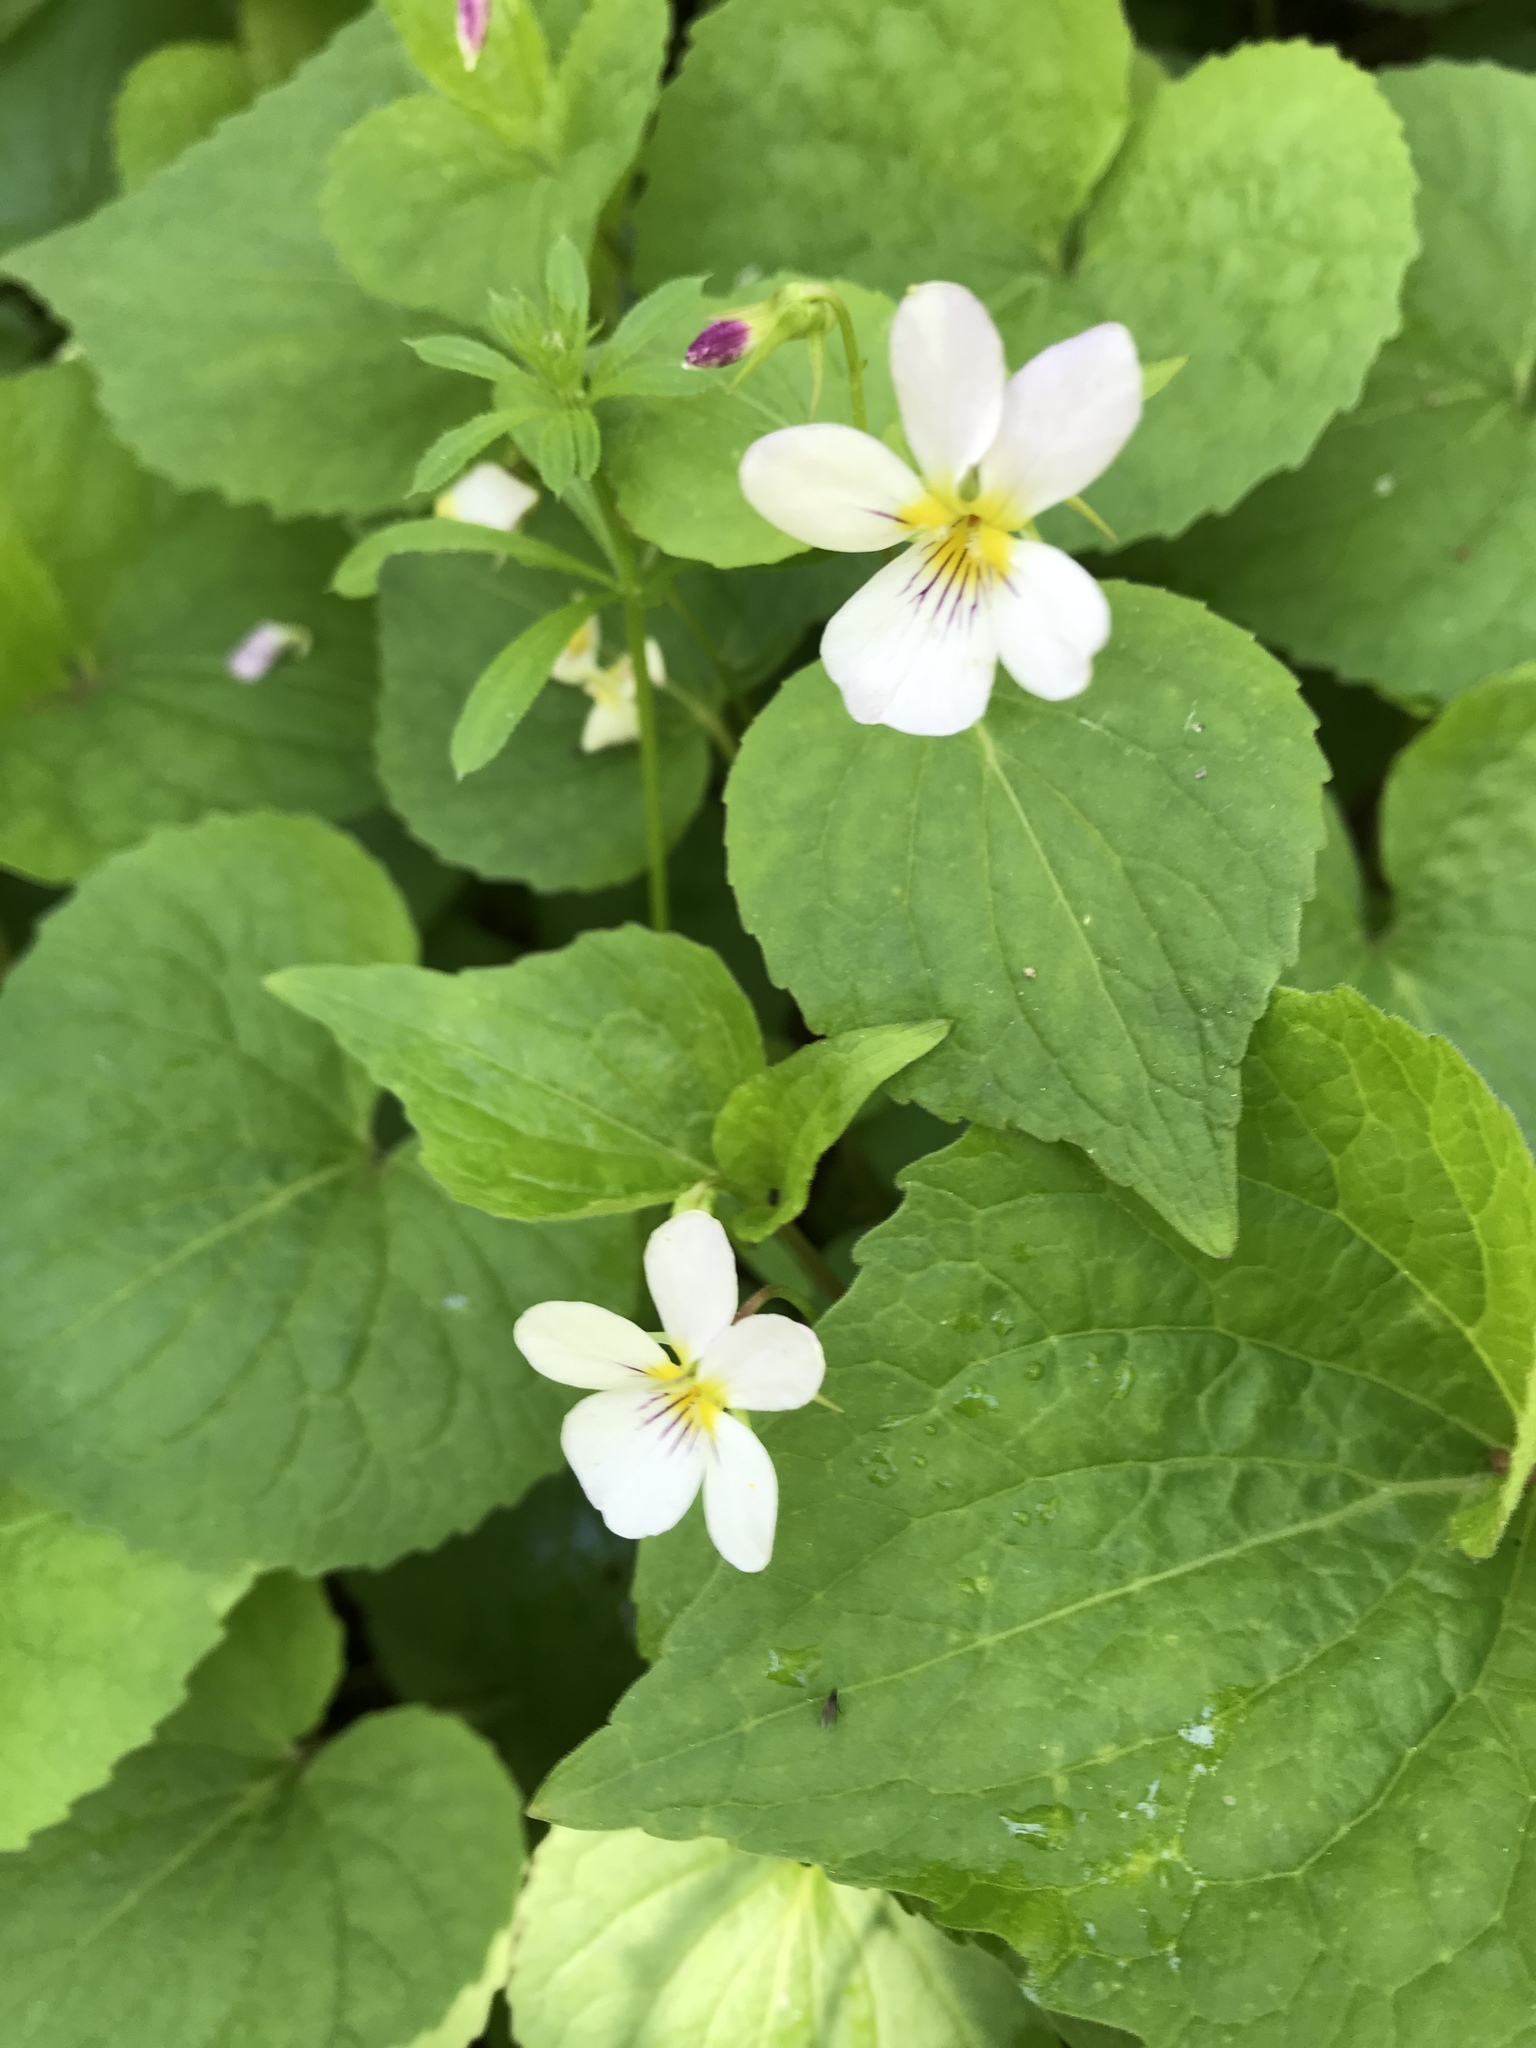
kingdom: Plantae
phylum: Tracheophyta
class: Magnoliopsida
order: Malpighiales
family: Violaceae
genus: Viola
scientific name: Viola canadensis
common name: Canada violet
